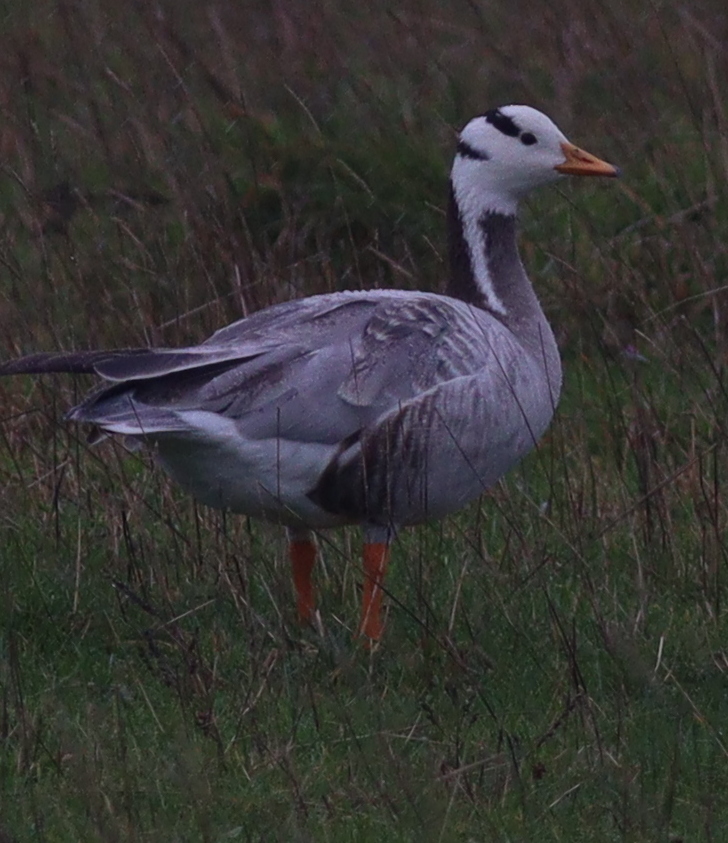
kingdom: Animalia
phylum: Chordata
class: Aves
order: Anseriformes
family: Anatidae
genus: Anser
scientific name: Anser indicus
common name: Bar-headed goose
